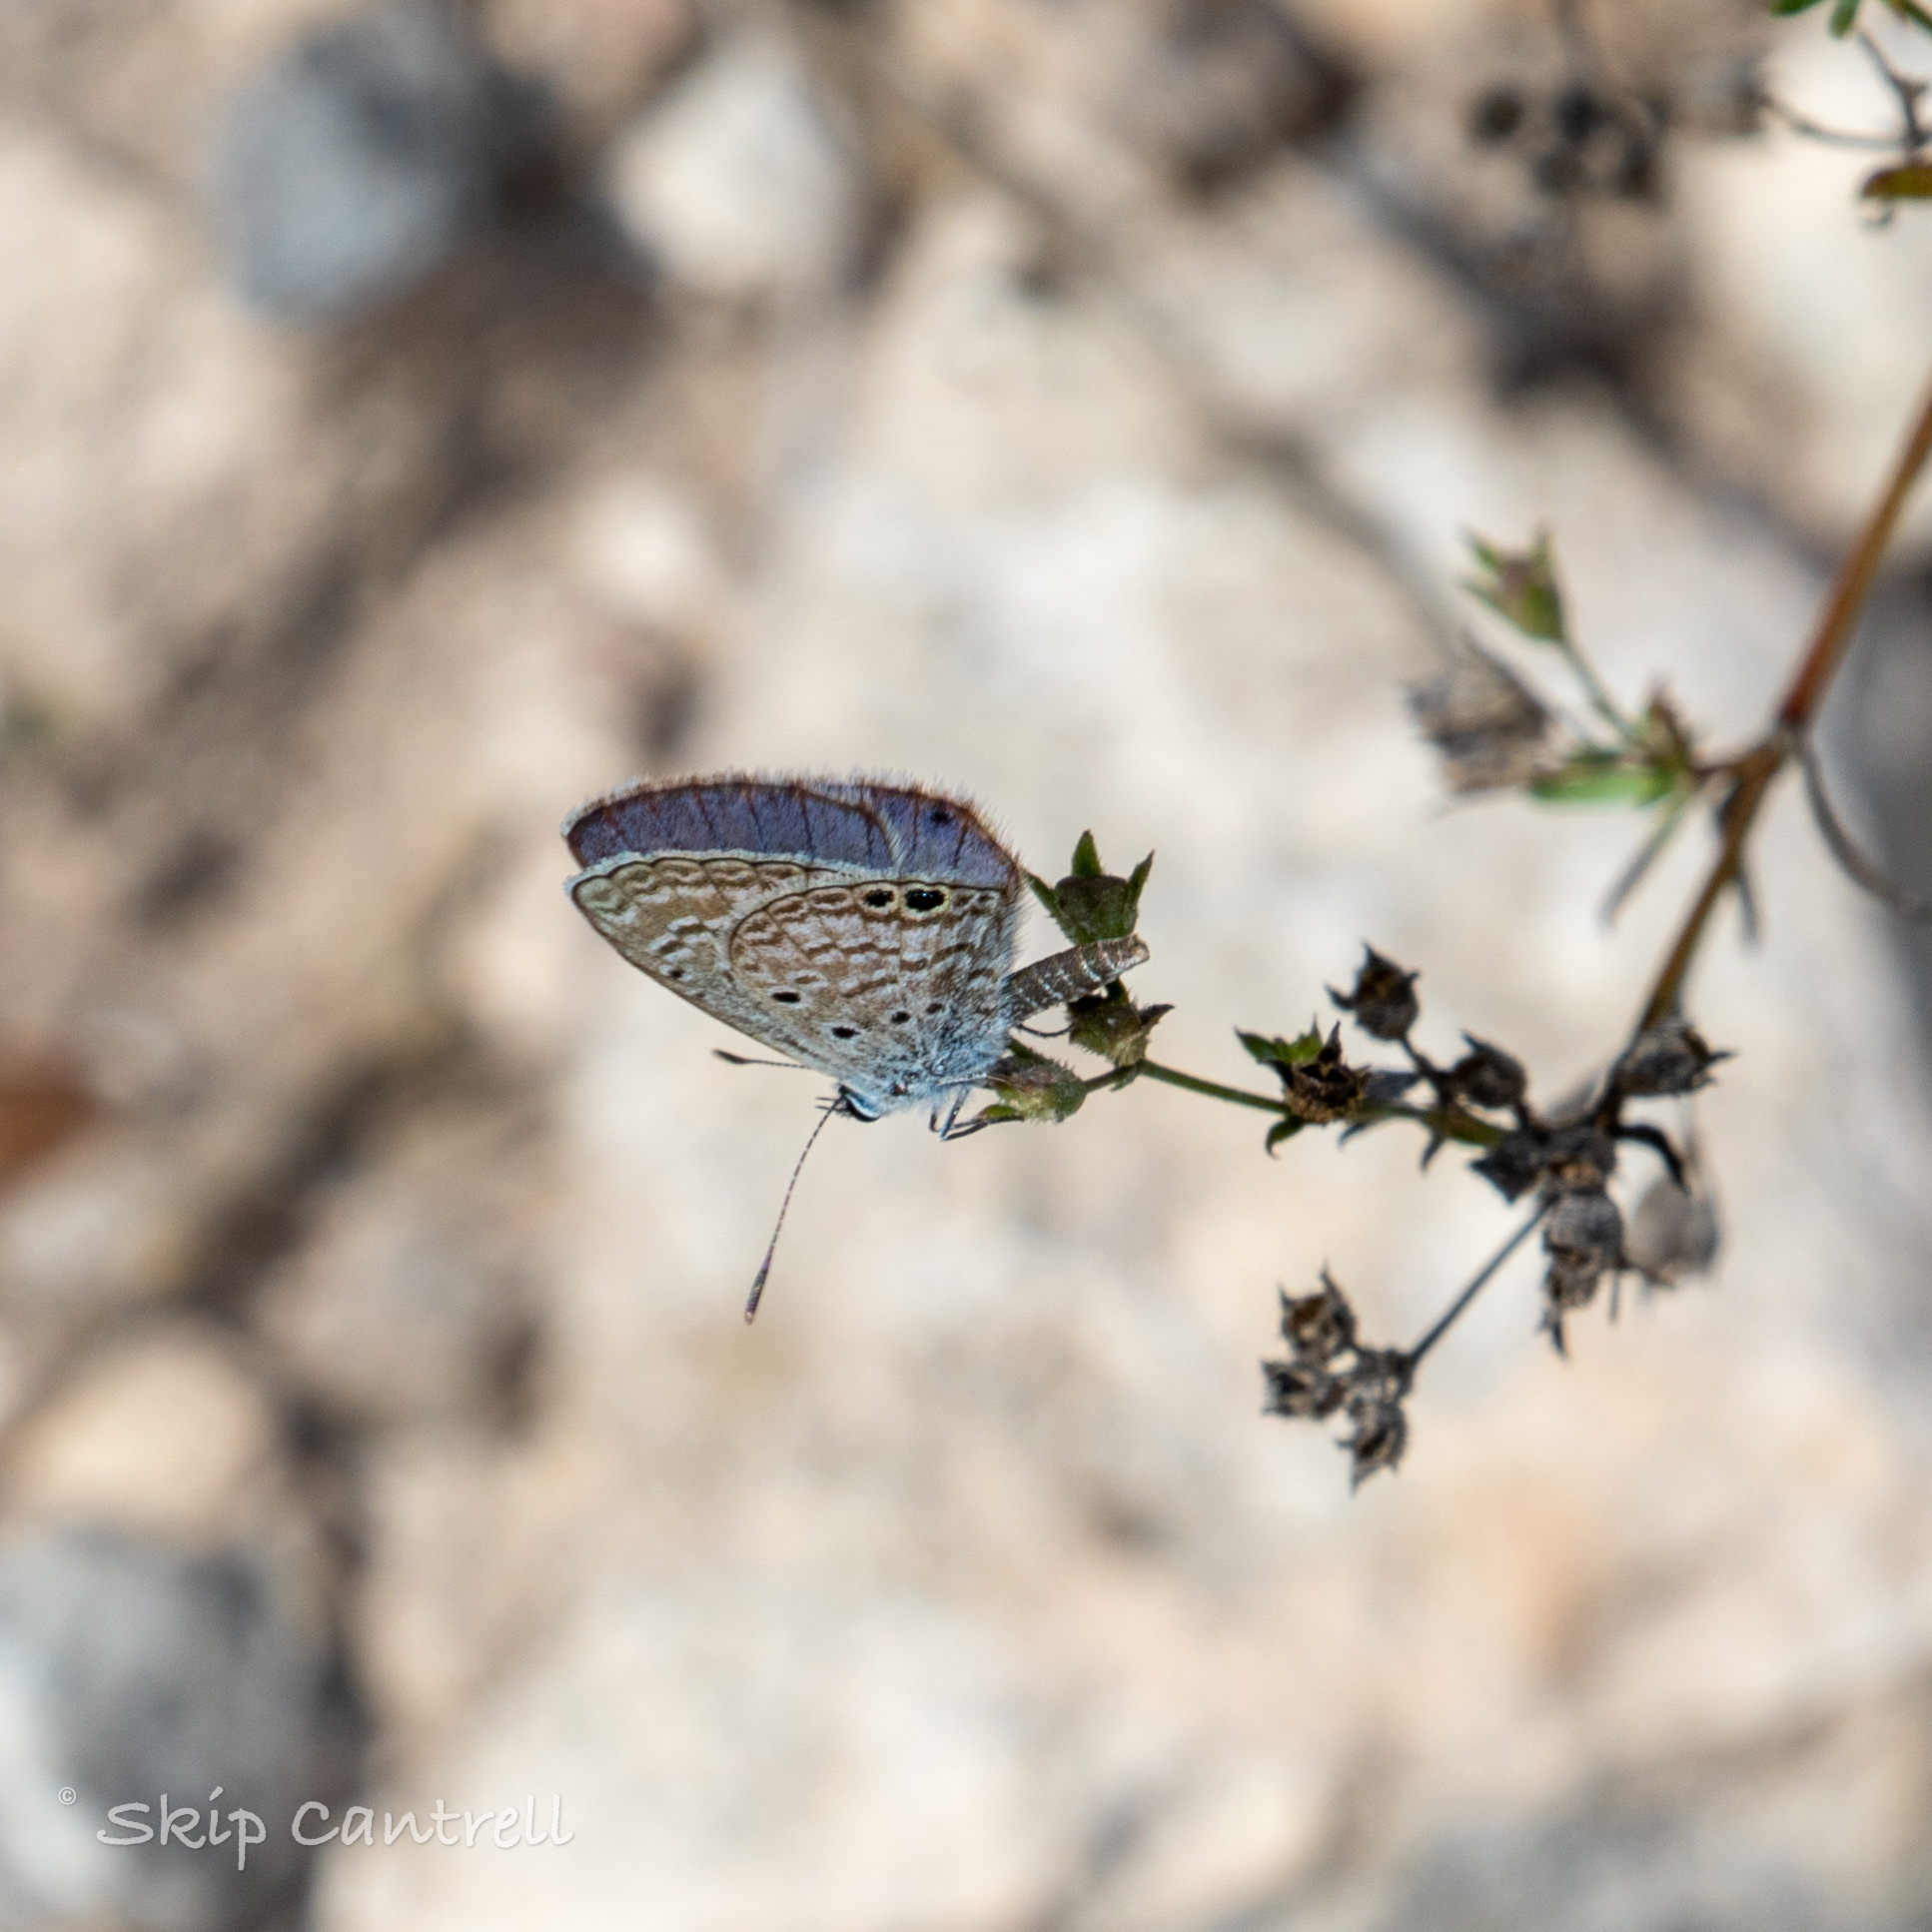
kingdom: Animalia
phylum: Arthropoda
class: Insecta
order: Lepidoptera
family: Lycaenidae
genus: Hemiargus
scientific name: Hemiargus ceraunus
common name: Ceraunus blue
